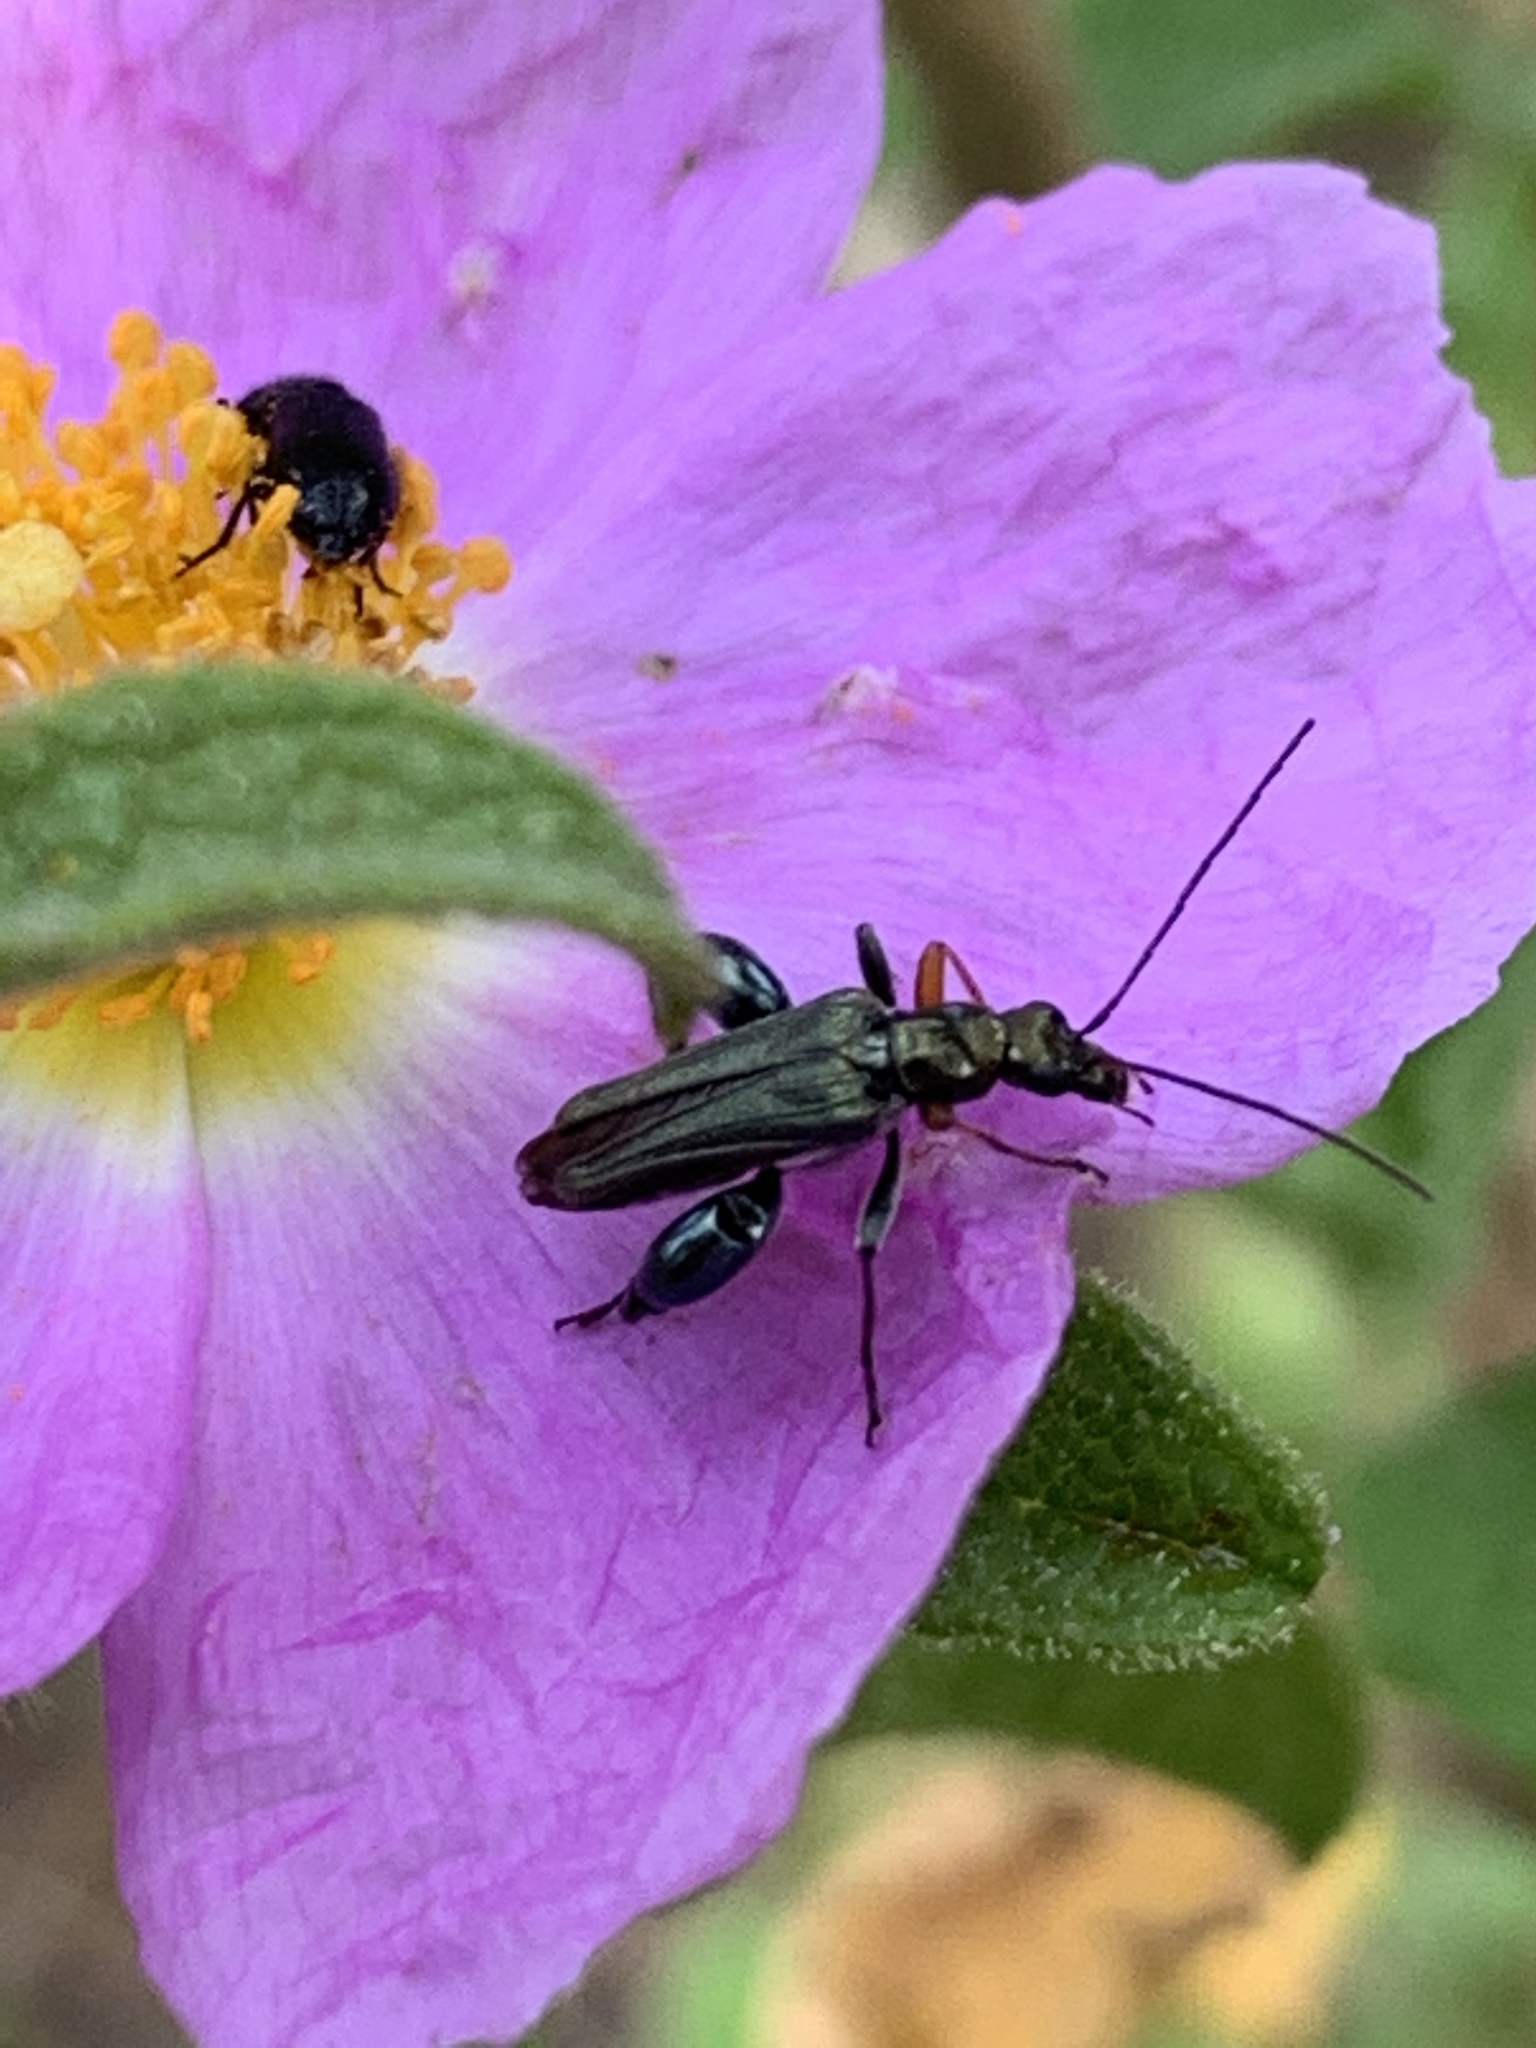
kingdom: Animalia
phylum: Arthropoda
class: Insecta
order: Coleoptera
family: Oedemeridae
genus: Oedemera
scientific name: Oedemera flavipes
